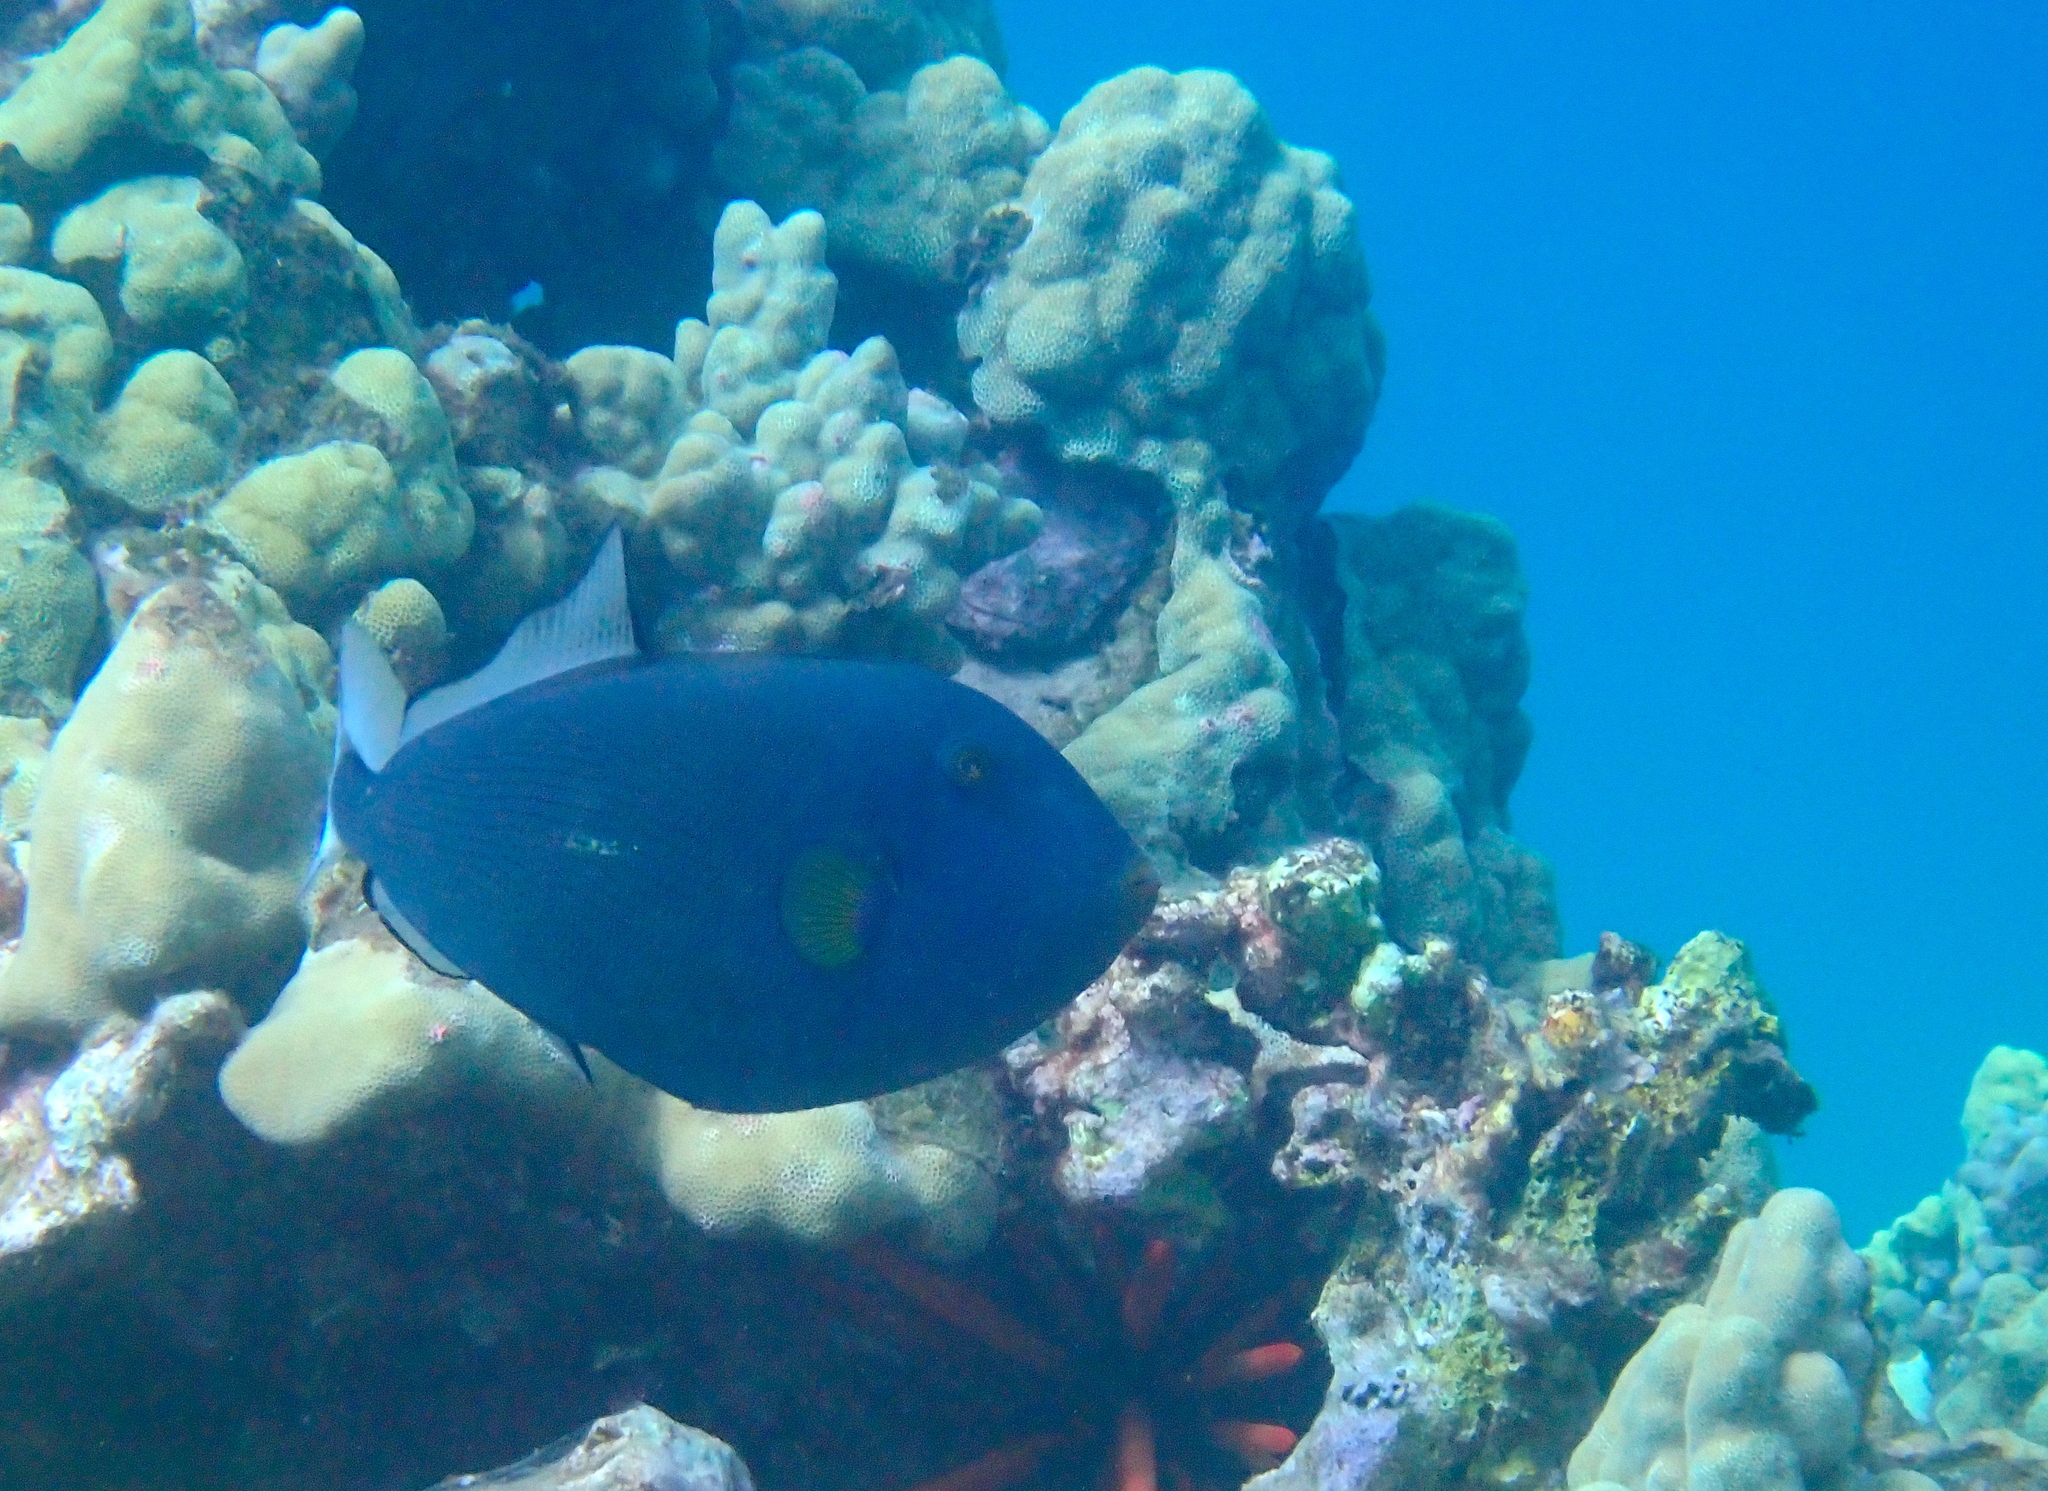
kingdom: Animalia
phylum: Chordata
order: Tetraodontiformes
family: Balistidae
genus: Melichthys
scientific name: Melichthys vidua
